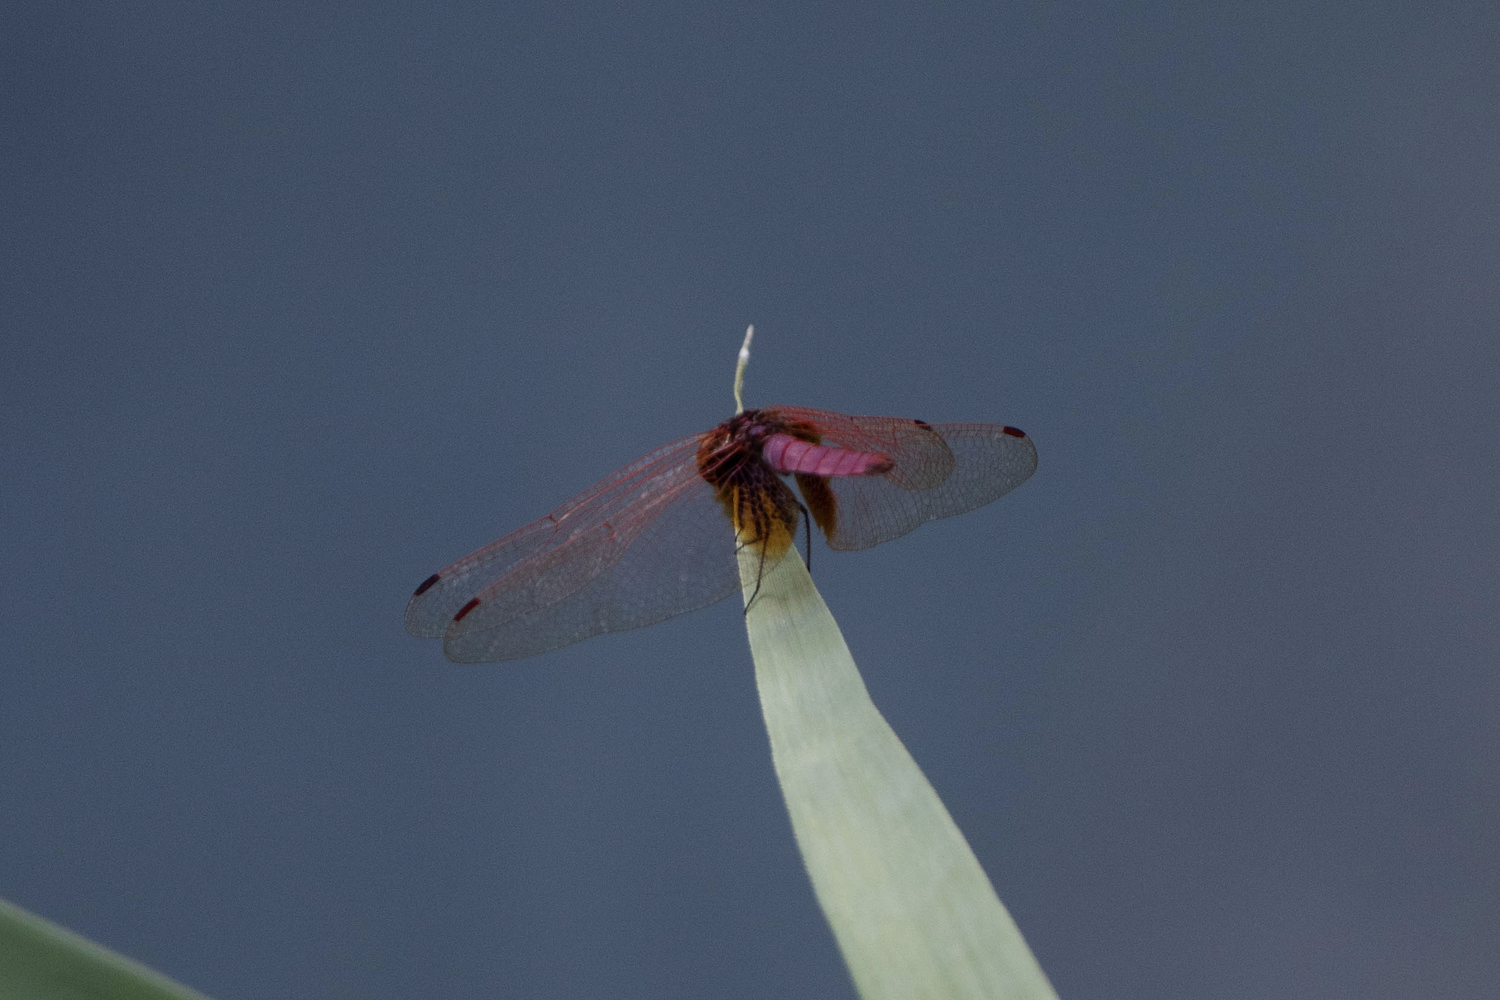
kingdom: Animalia
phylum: Arthropoda
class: Insecta
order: Odonata
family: Libellulidae
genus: Trithemis
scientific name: Trithemis aurora
